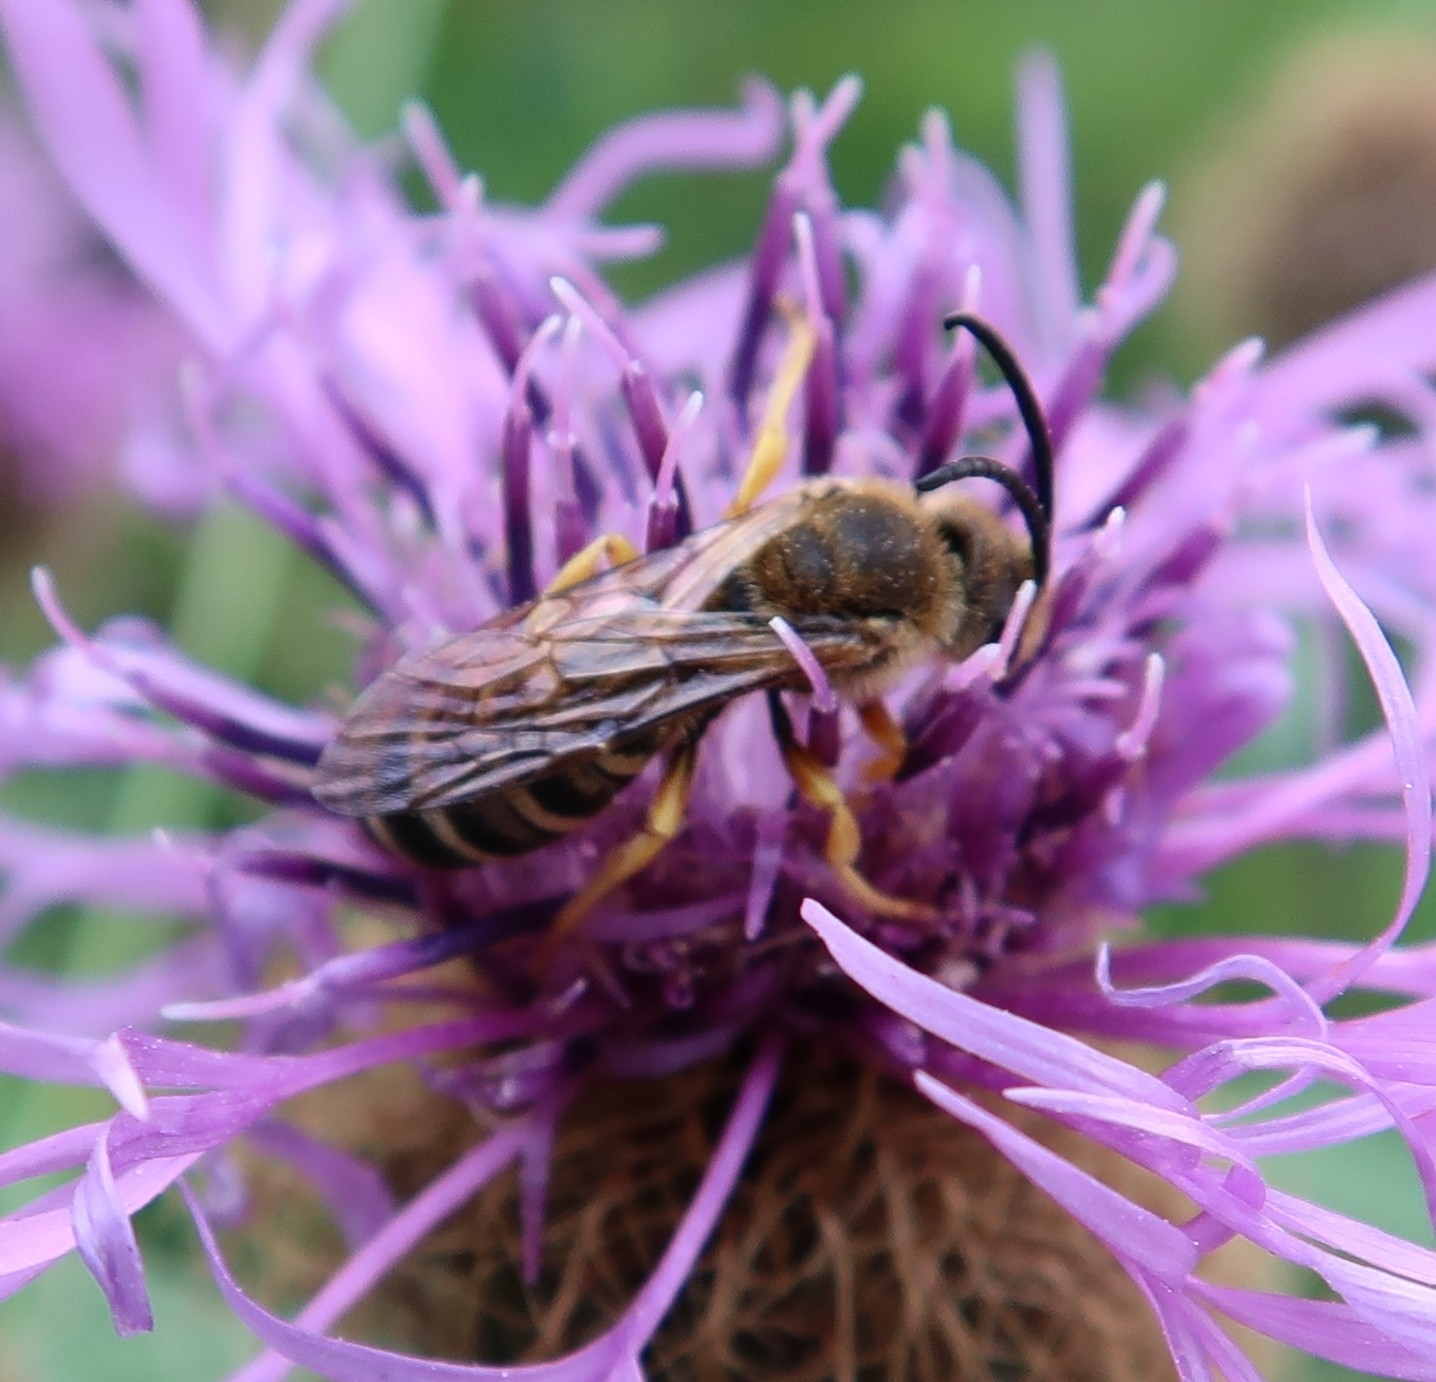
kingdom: Animalia
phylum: Arthropoda
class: Insecta
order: Hymenoptera
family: Halictidae
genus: Halictus
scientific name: Halictus scabiosae
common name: Great banded furrow bee
